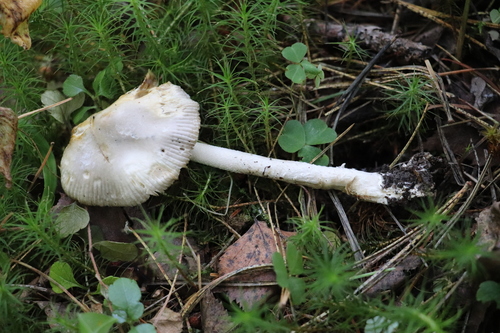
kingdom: Fungi
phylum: Basidiomycota
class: Agaricomycetes
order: Agaricales
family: Amanitaceae
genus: Amanita
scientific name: Amanita
